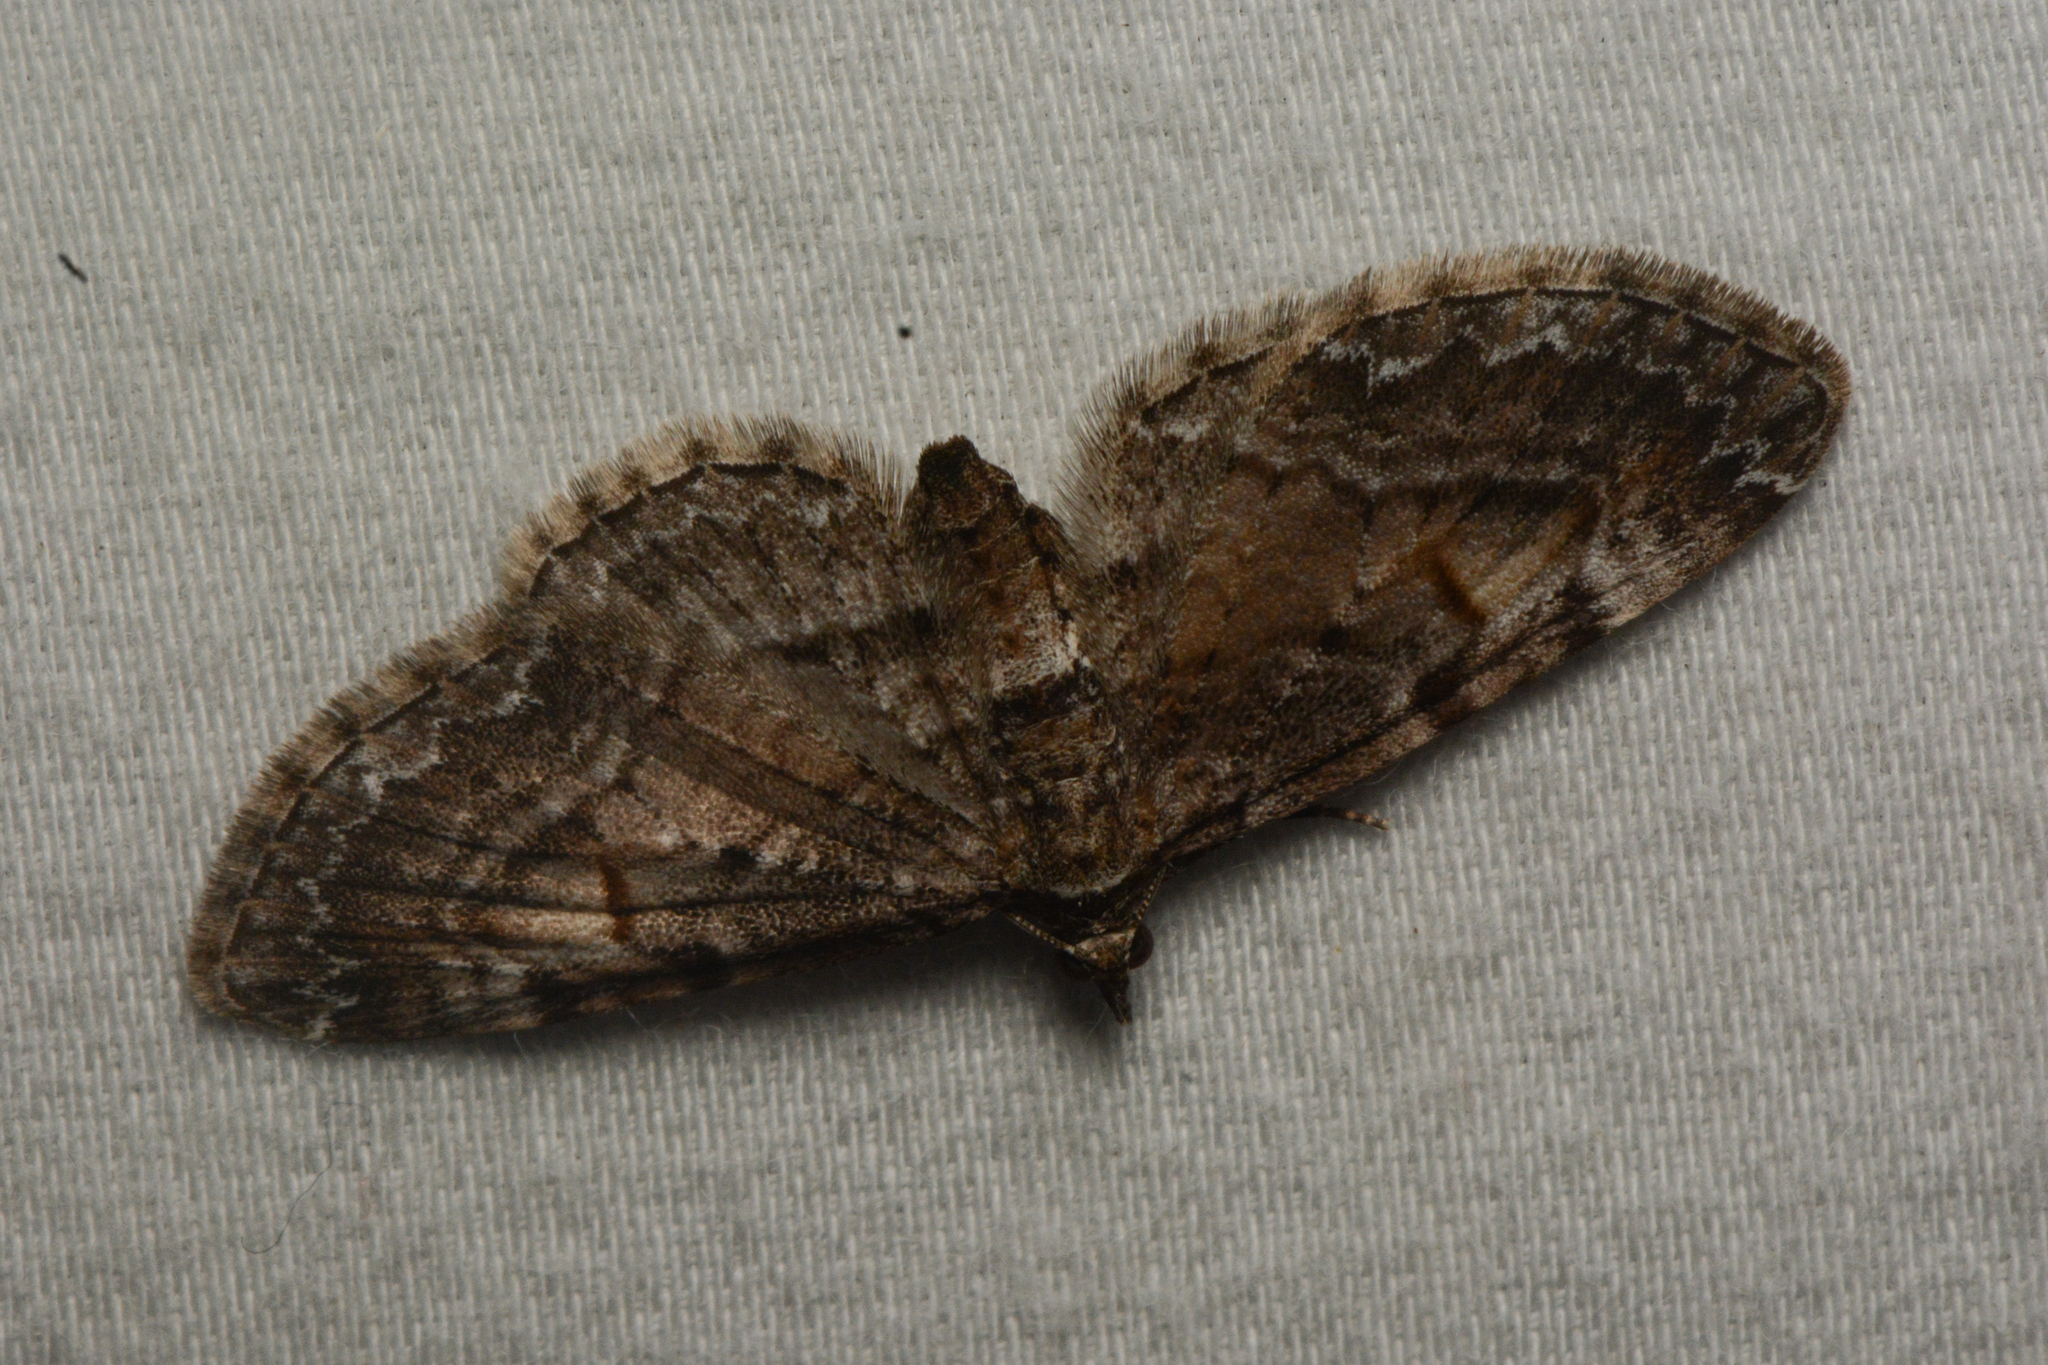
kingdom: Animalia
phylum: Arthropoda
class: Insecta
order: Lepidoptera
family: Geometridae
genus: Eupithecia
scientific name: Eupithecia graefii
